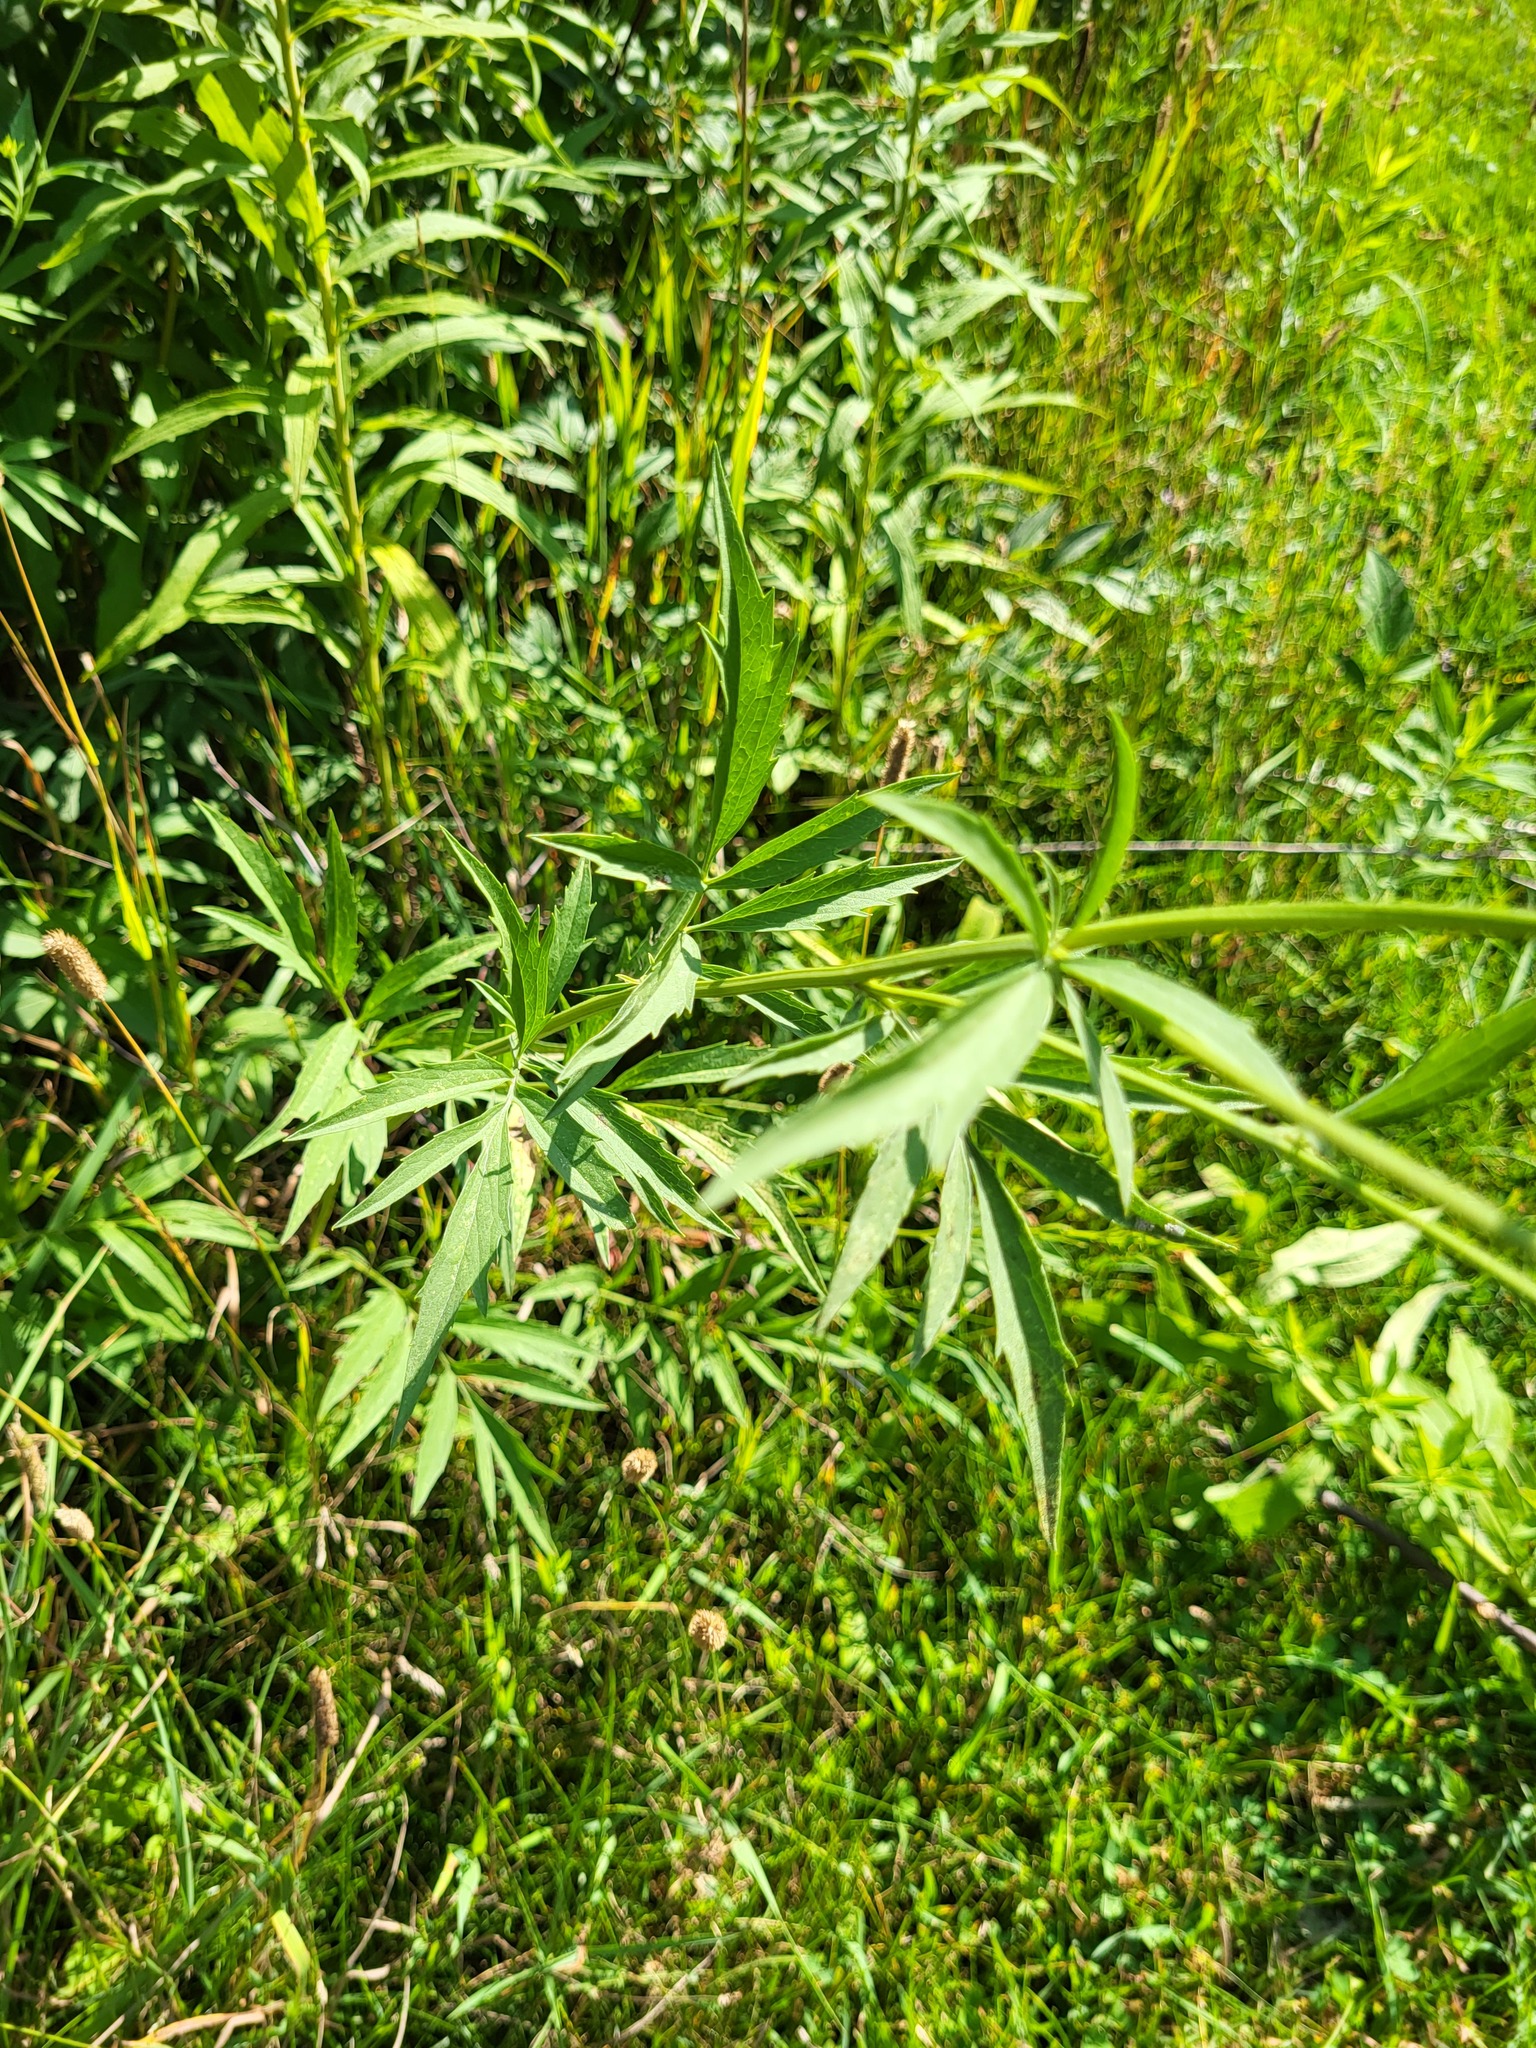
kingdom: Plantae
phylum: Tracheophyta
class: Magnoliopsida
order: Asterales
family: Asteraceae
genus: Ratibida
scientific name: Ratibida pinnata
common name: Drooping prairie-coneflower
